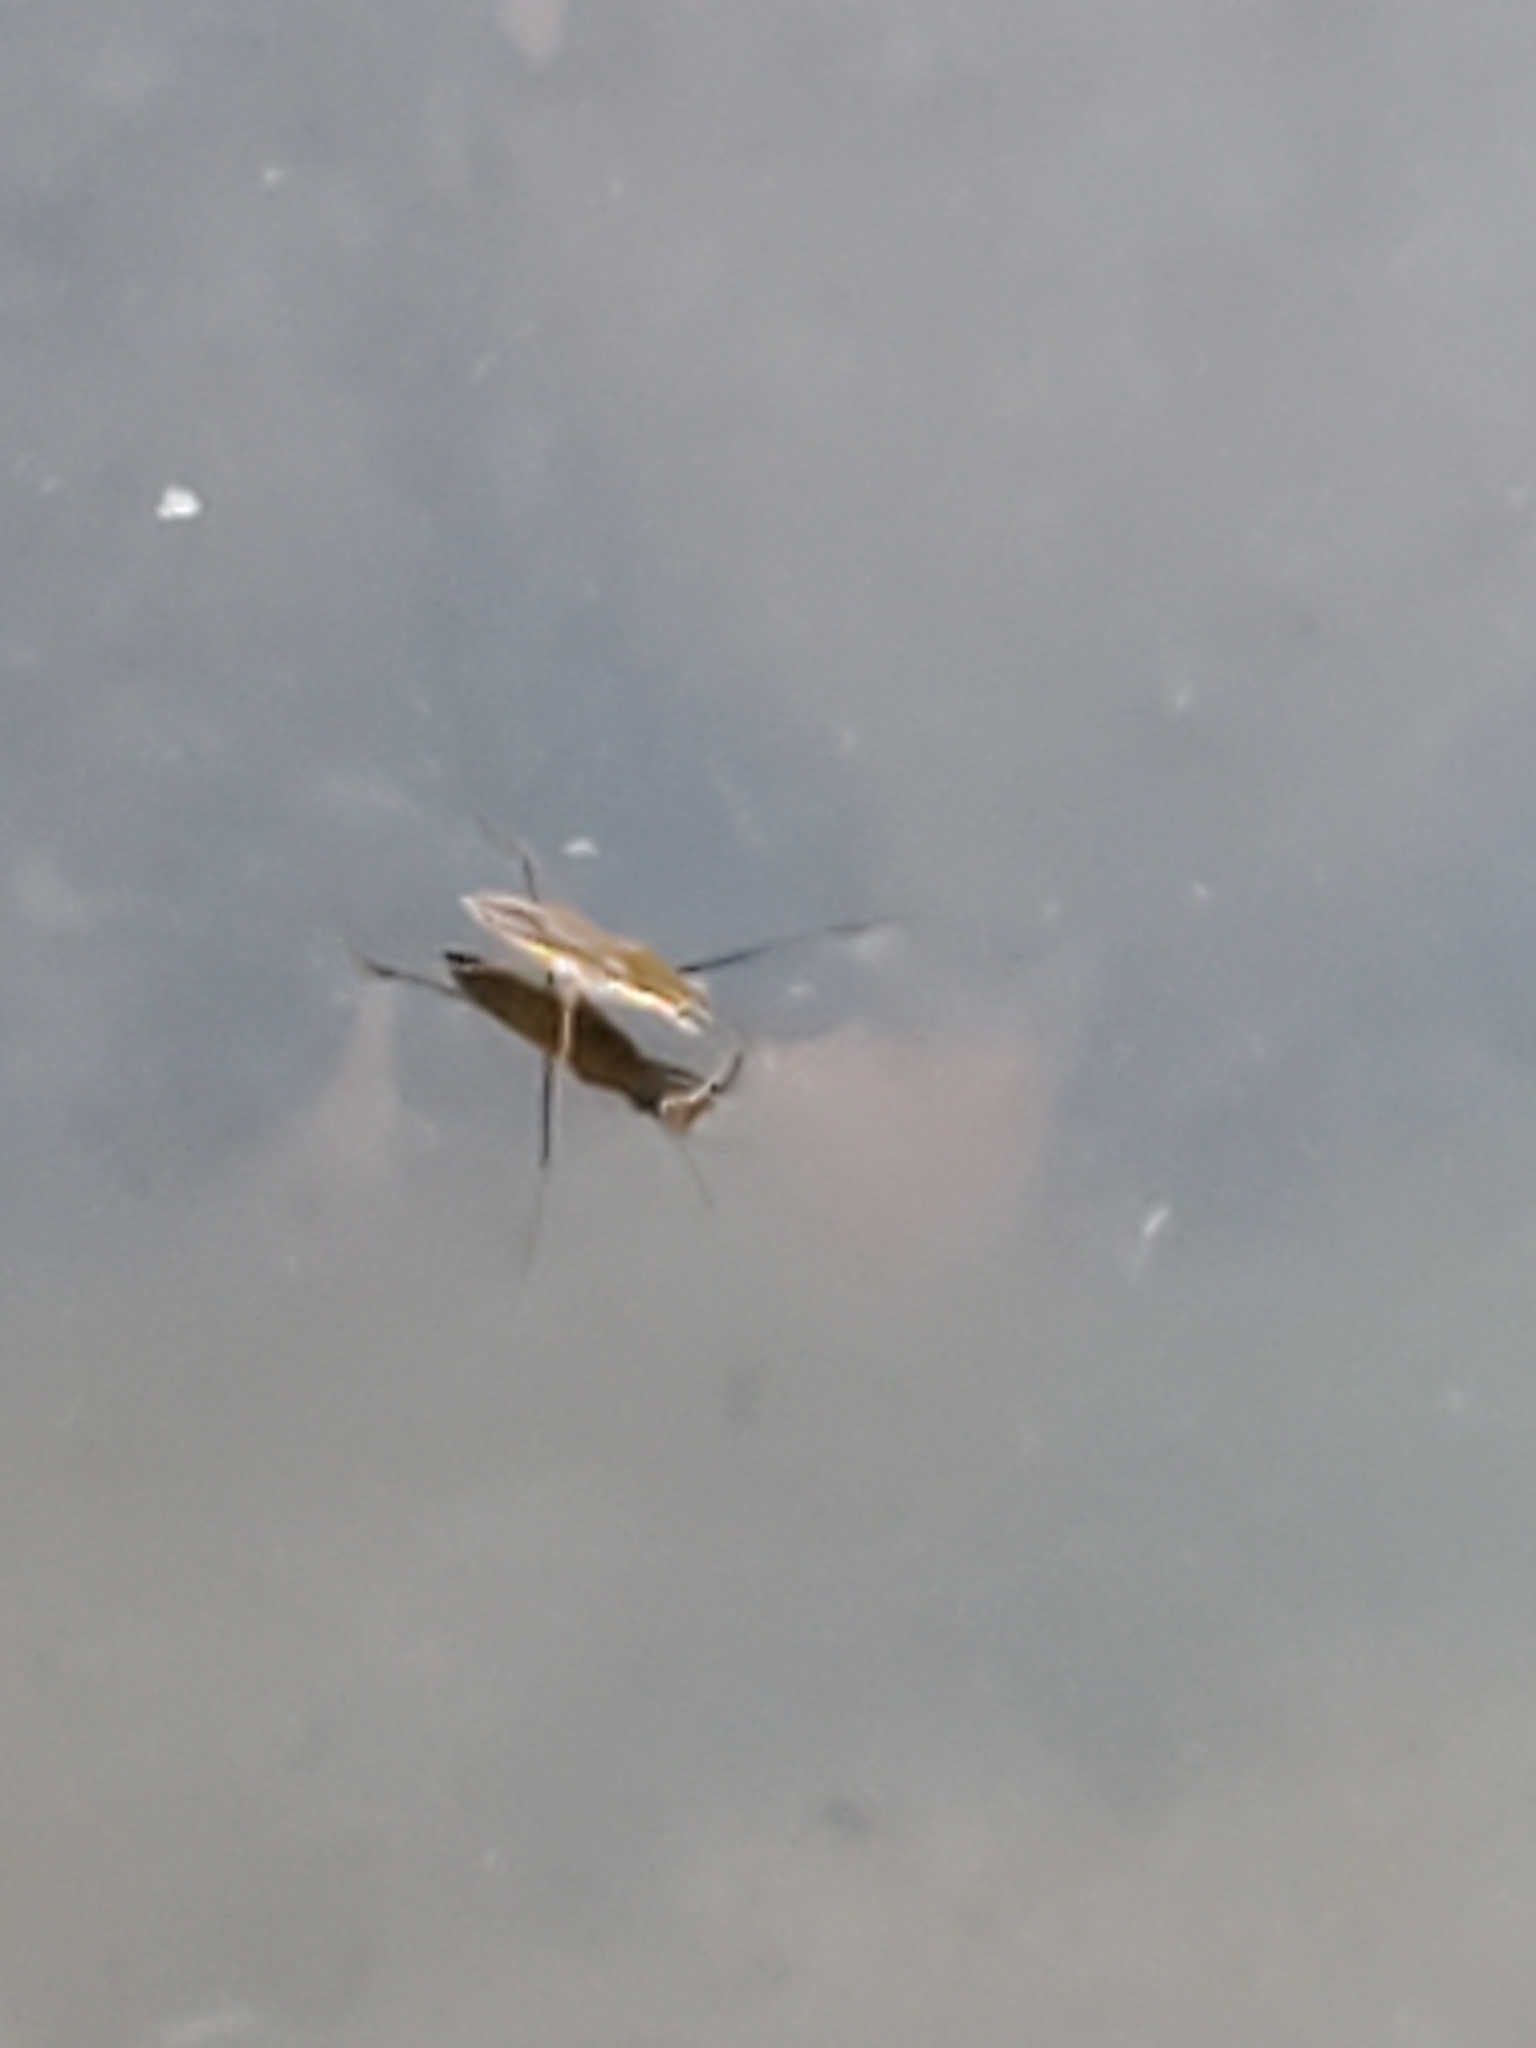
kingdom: Animalia
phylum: Arthropoda
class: Insecta
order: Hemiptera
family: Gerridae
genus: Gerris
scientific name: Gerris
